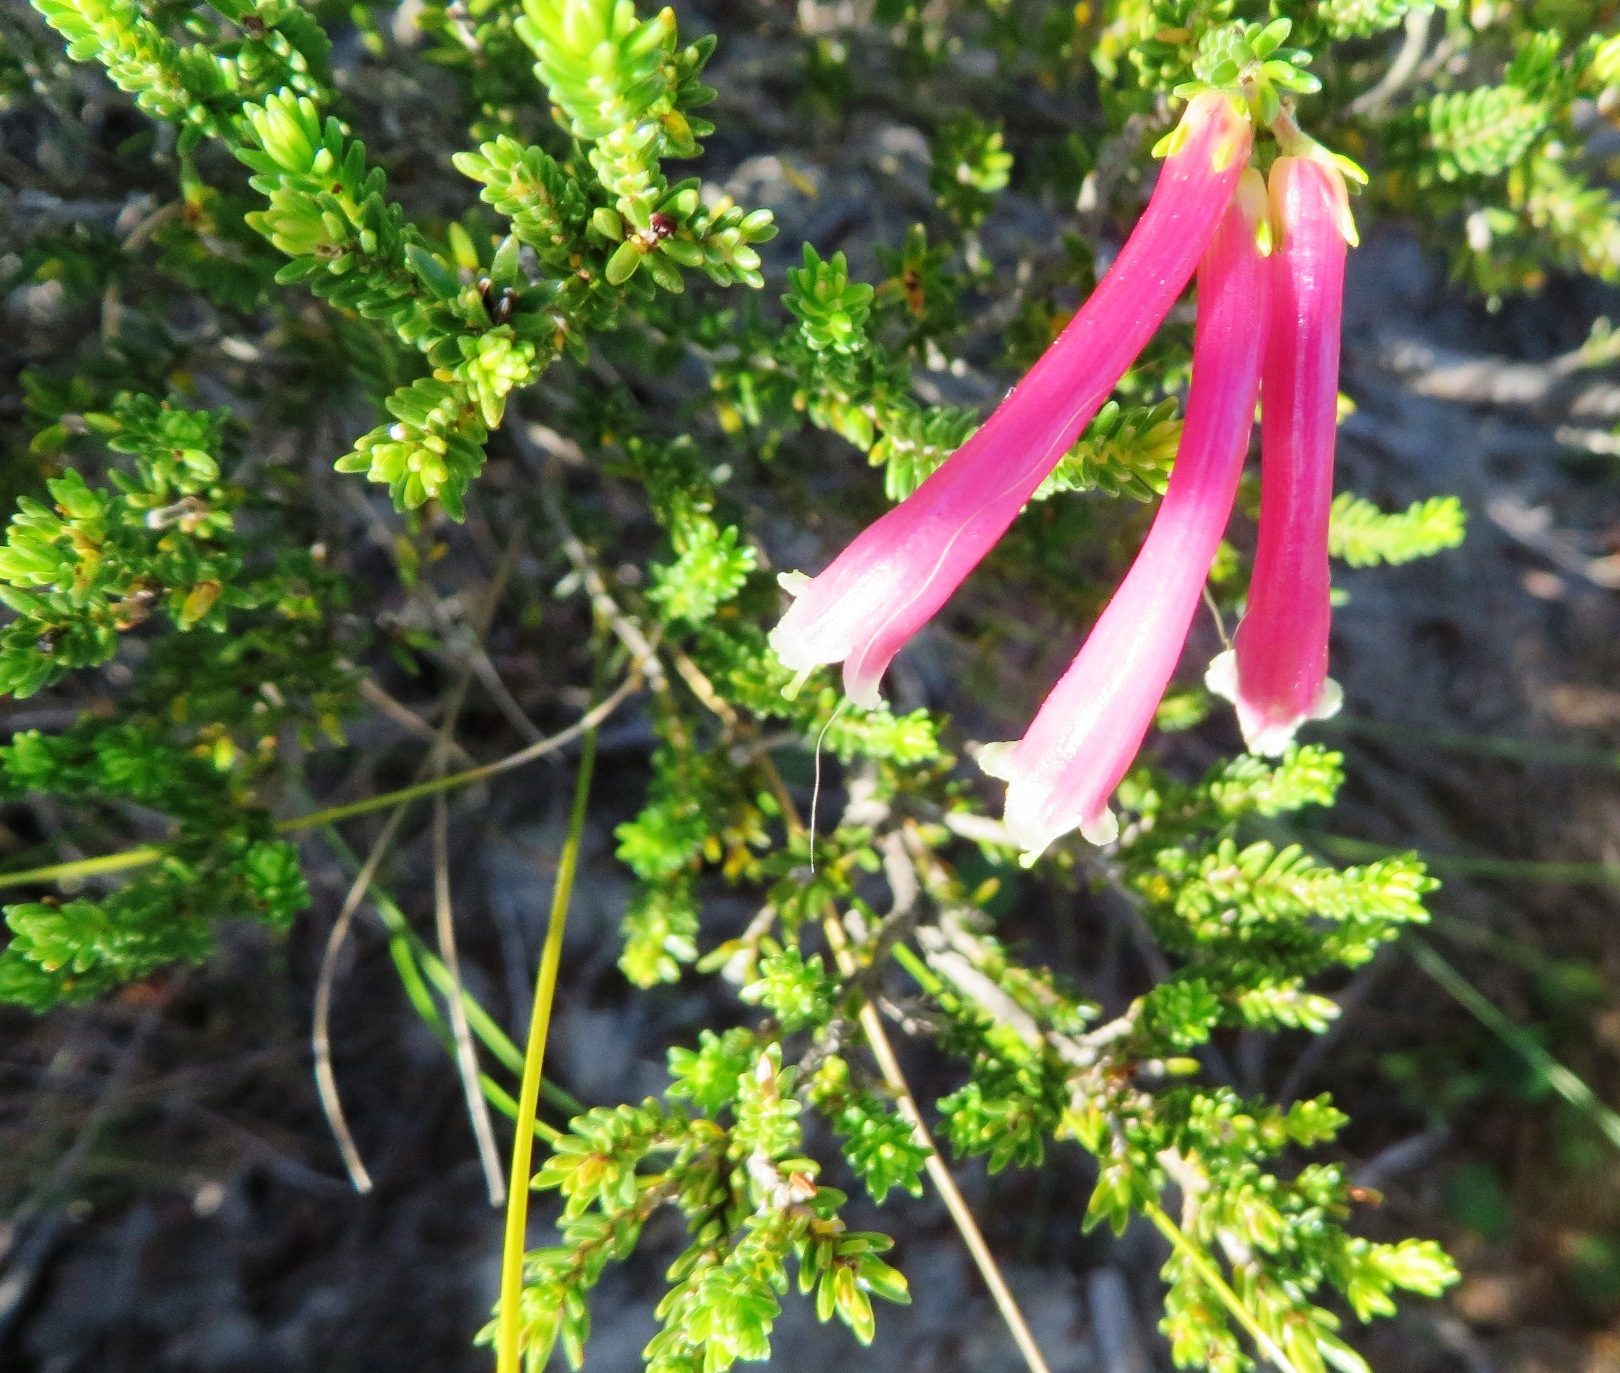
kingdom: Plantae
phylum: Tracheophyta
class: Magnoliopsida
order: Ericales
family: Ericaceae
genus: Erica
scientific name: Erica discolor
